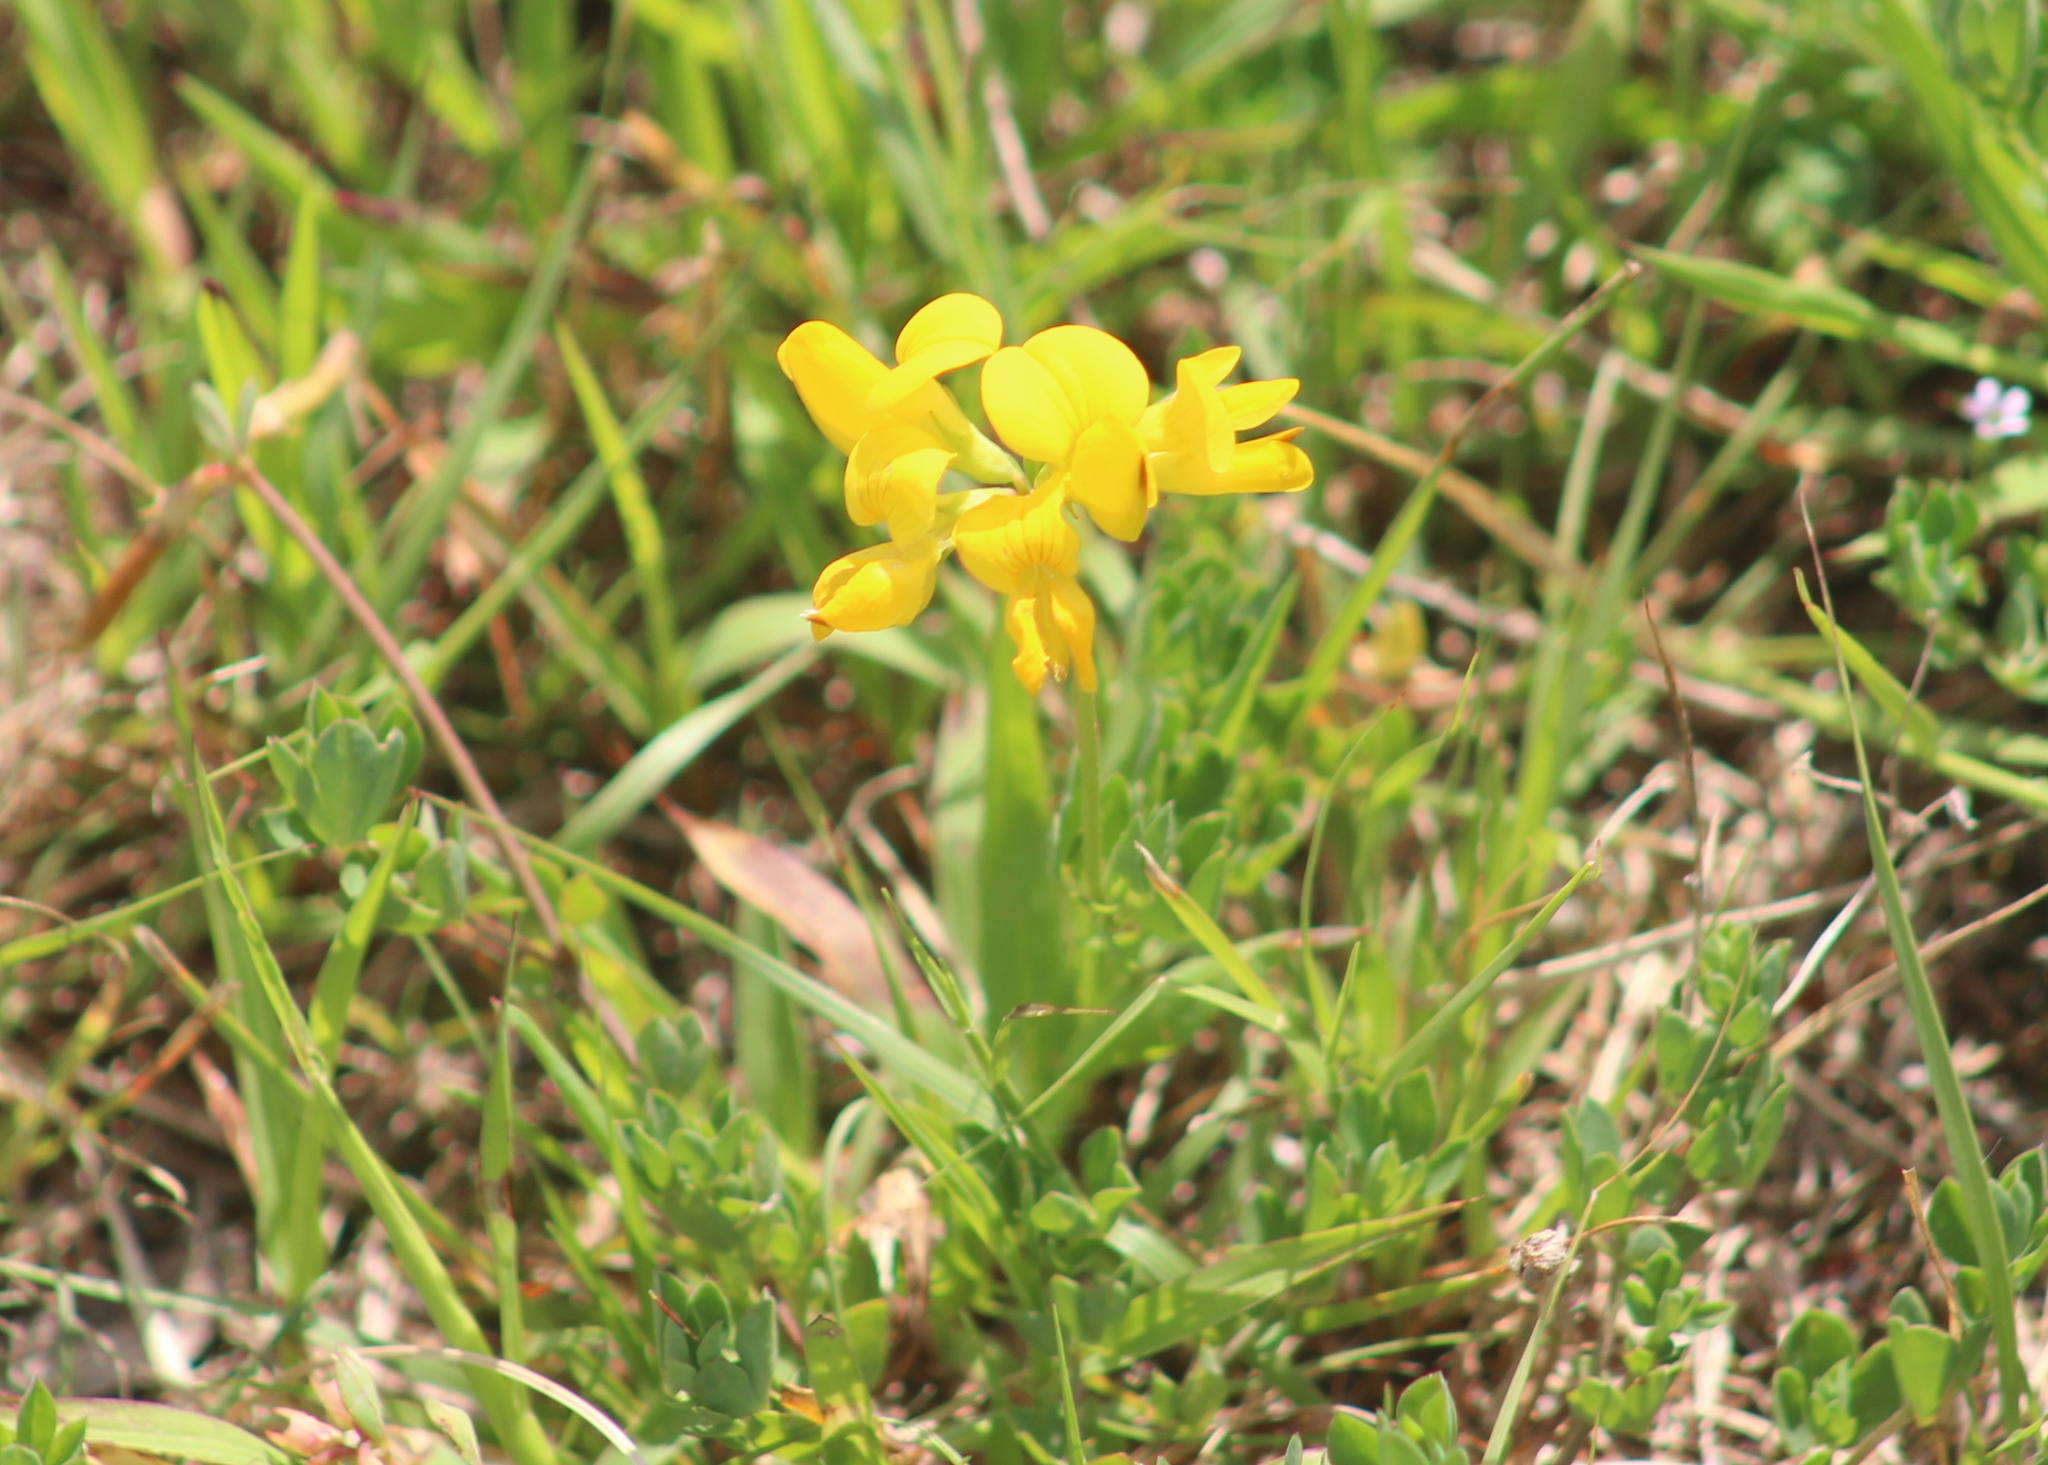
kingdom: Plantae
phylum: Tracheophyta
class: Magnoliopsida
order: Fabales
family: Fabaceae
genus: Lotus
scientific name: Lotus corniculatus
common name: Common bird's-foot-trefoil
